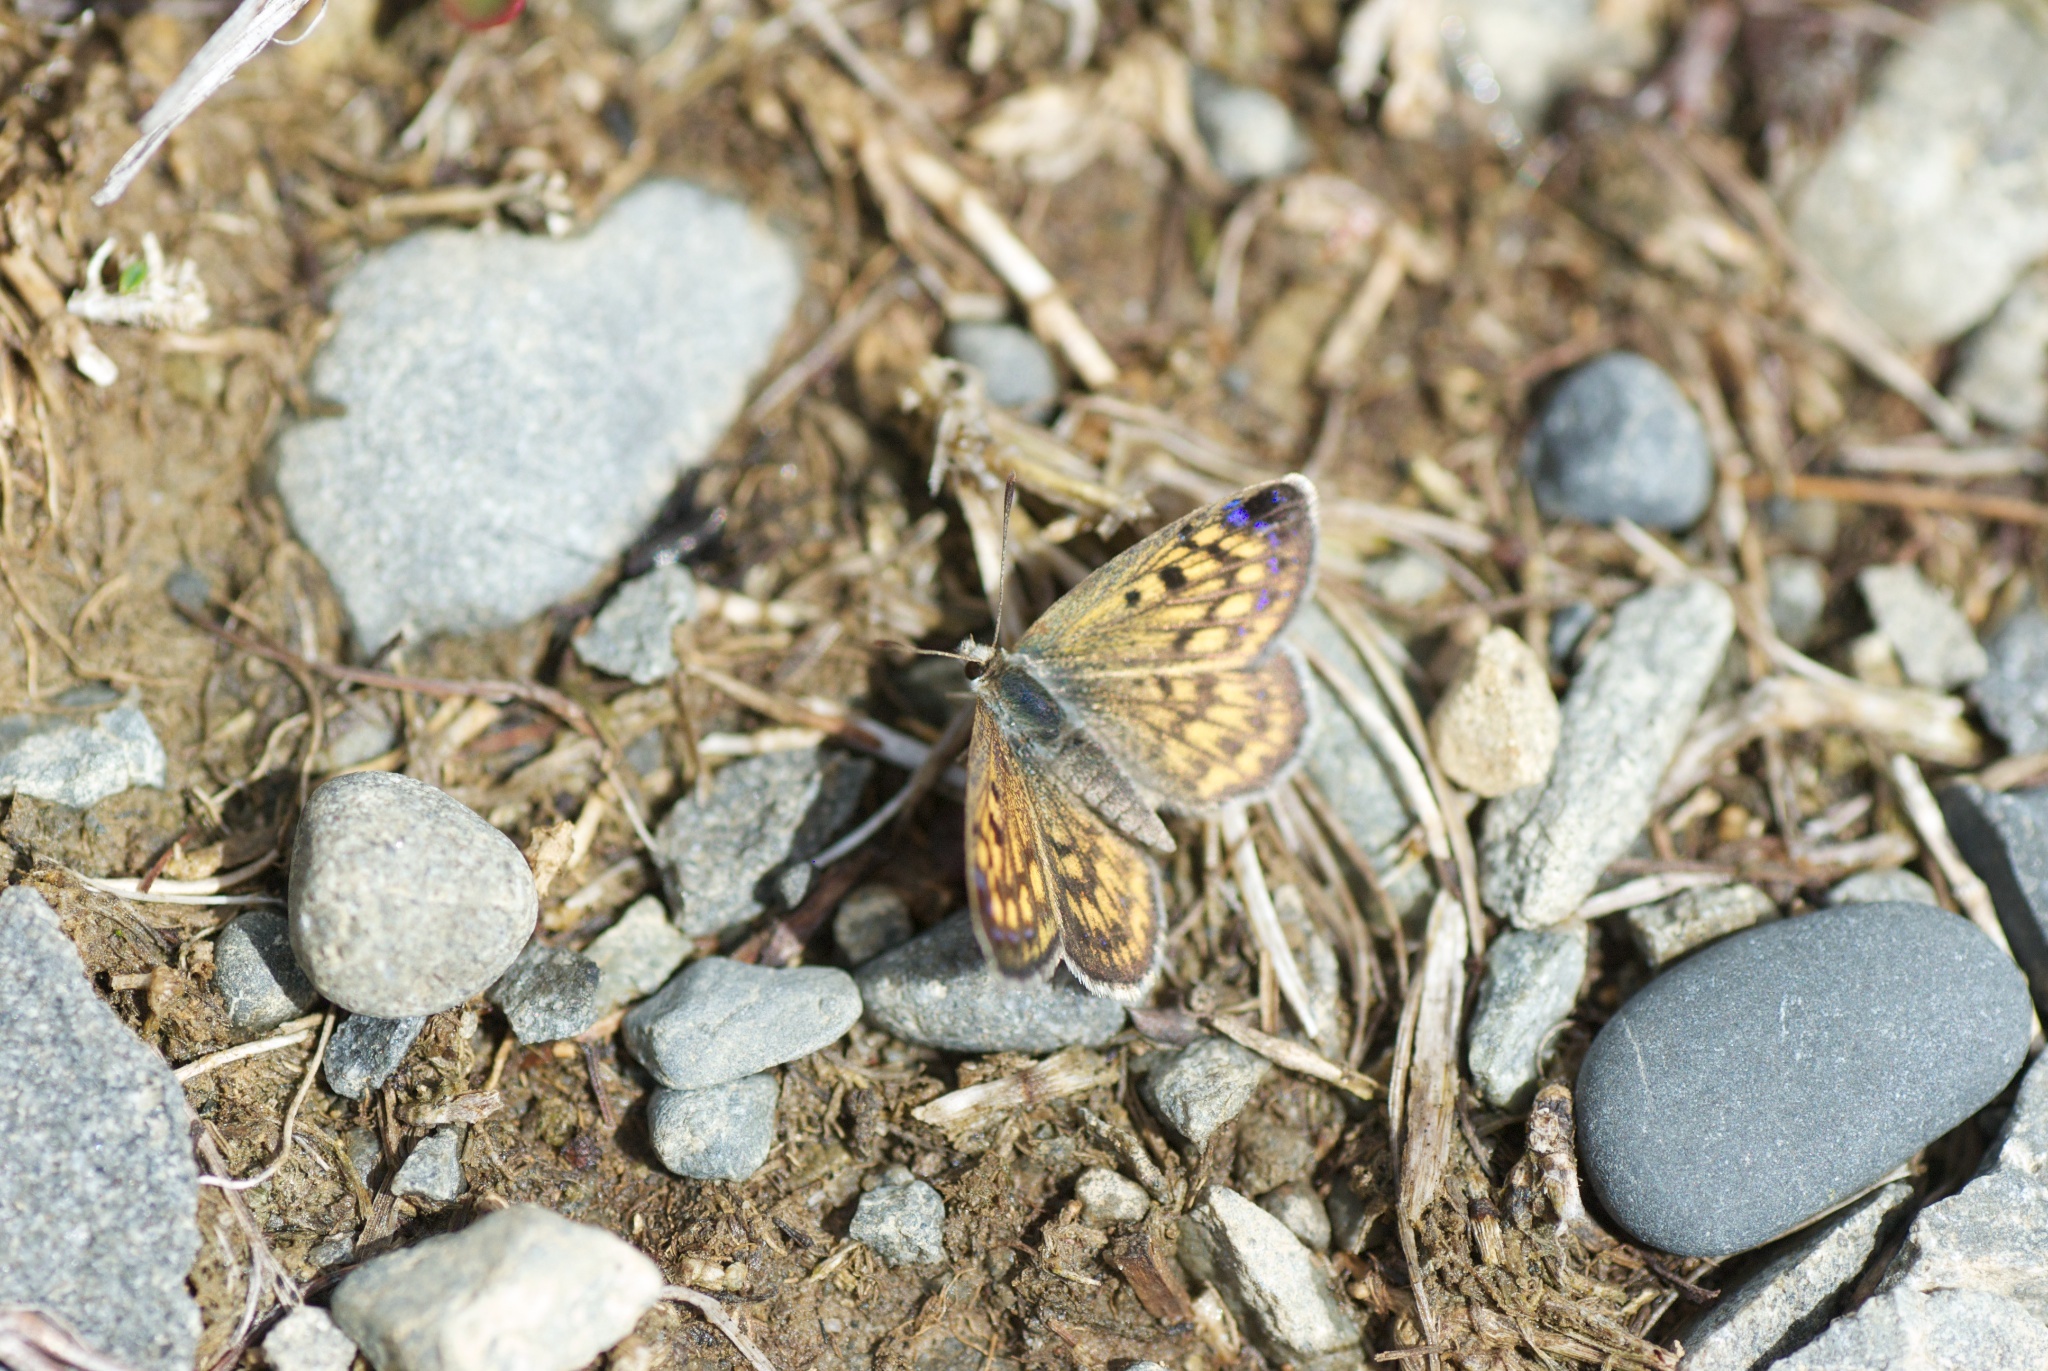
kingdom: Animalia
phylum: Arthropoda
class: Insecta
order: Lepidoptera
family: Lycaenidae
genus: Lycaena
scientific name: Lycaena boldenarum
